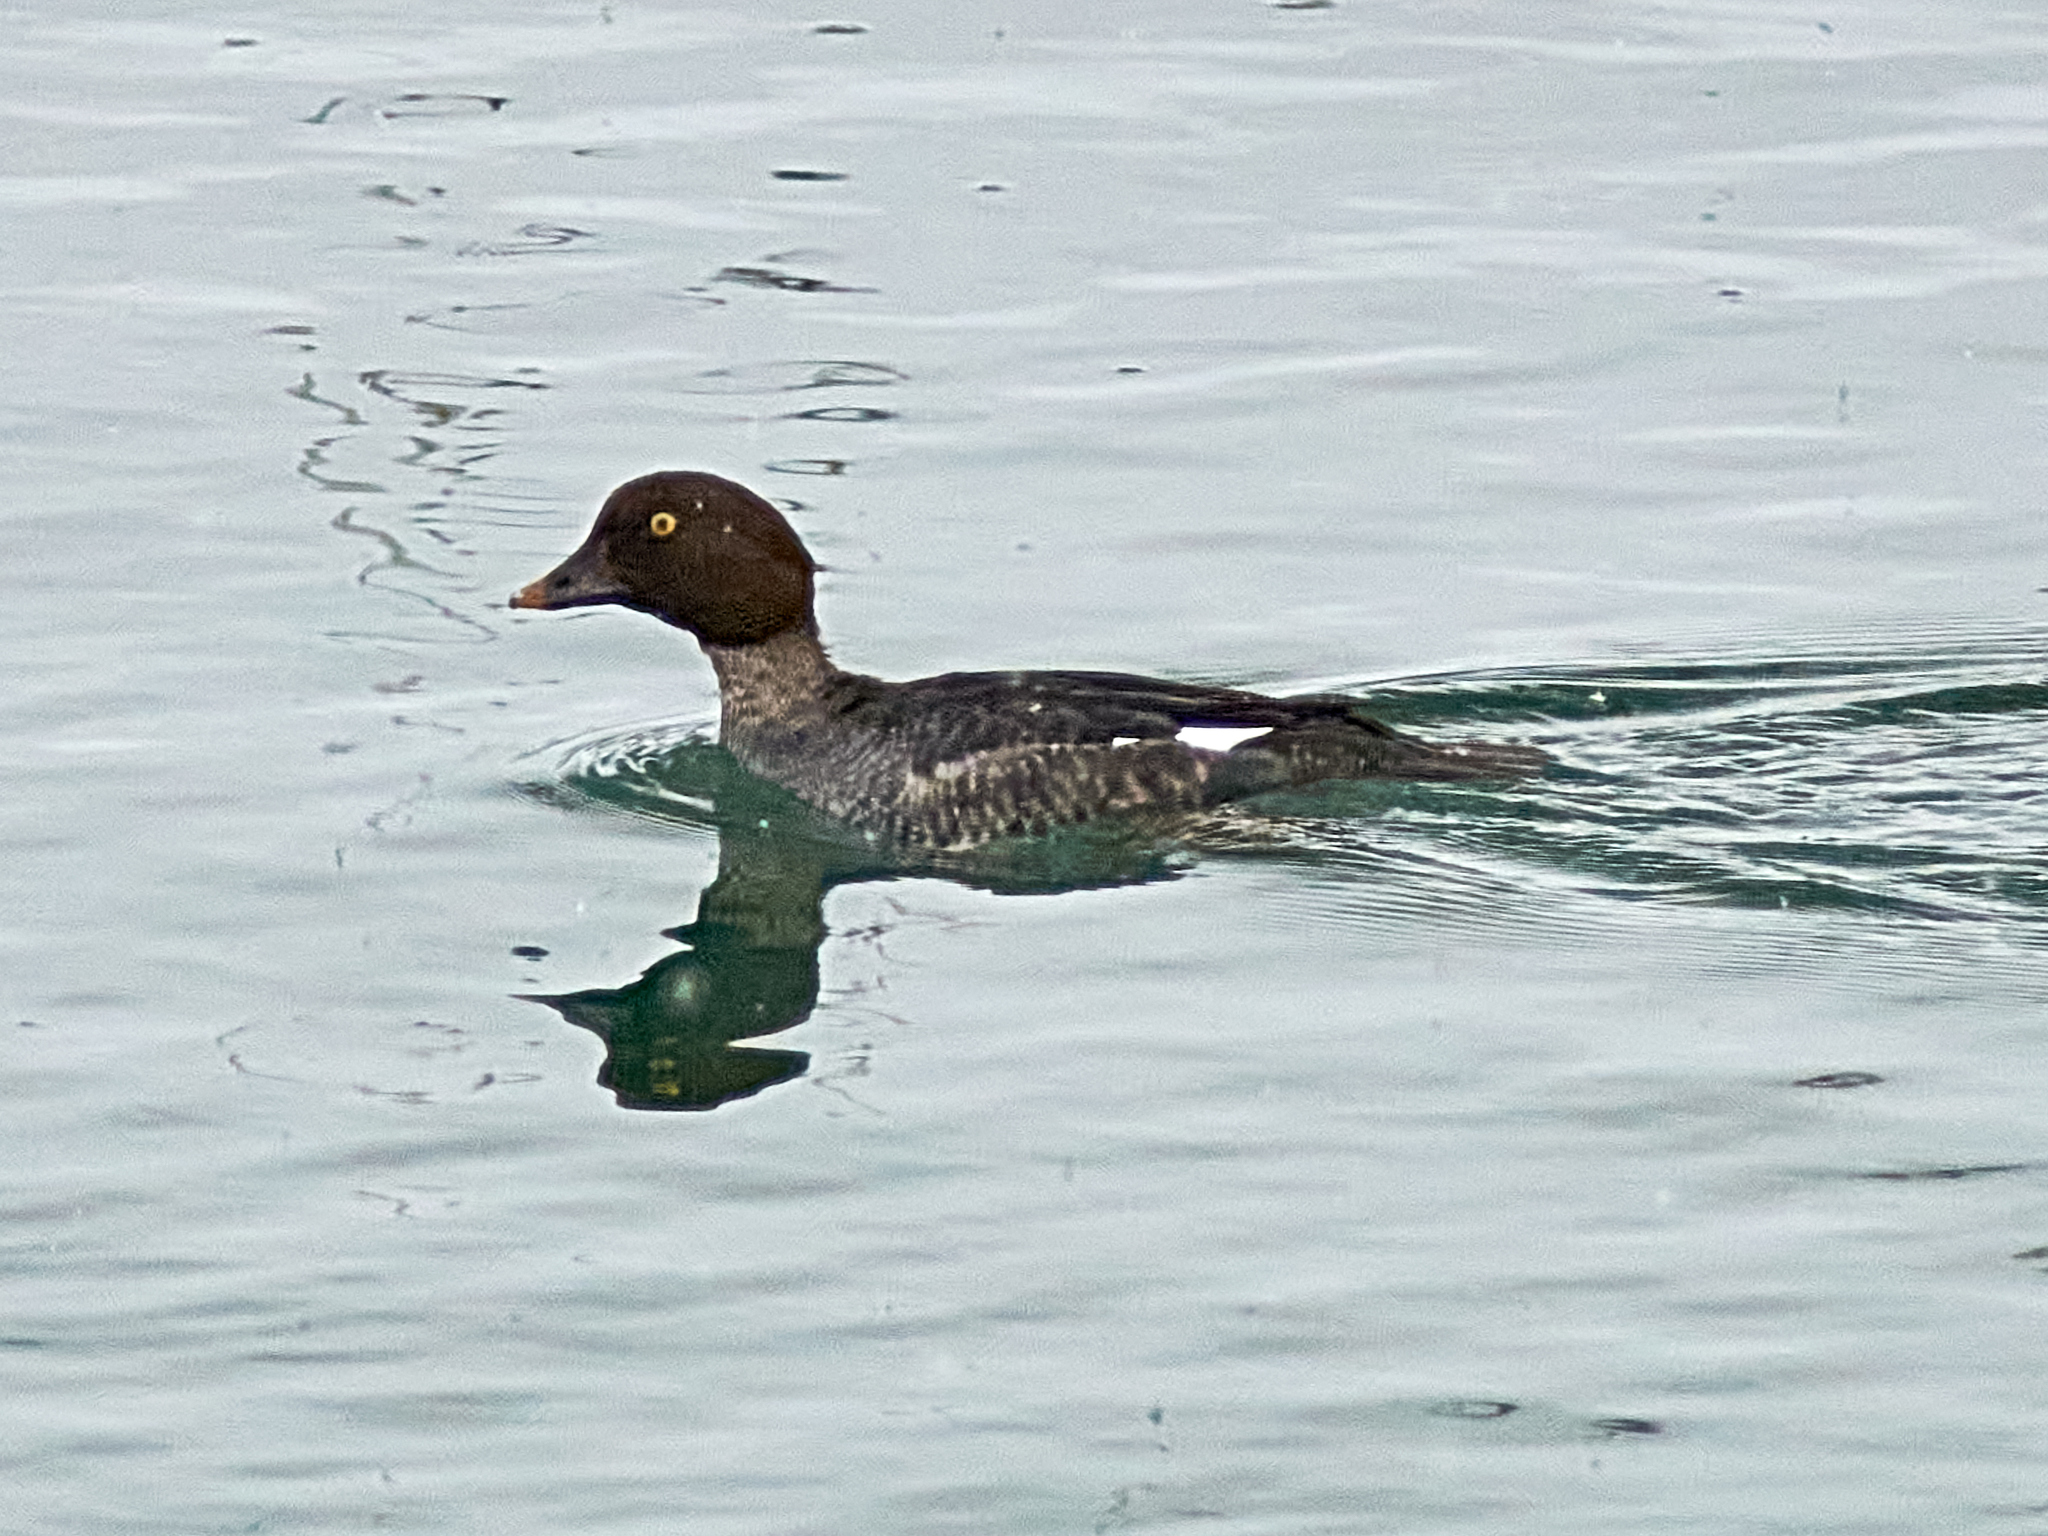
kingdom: Animalia
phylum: Chordata
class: Aves
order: Anseriformes
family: Anatidae
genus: Bucephala
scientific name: Bucephala clangula
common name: Common goldeneye
